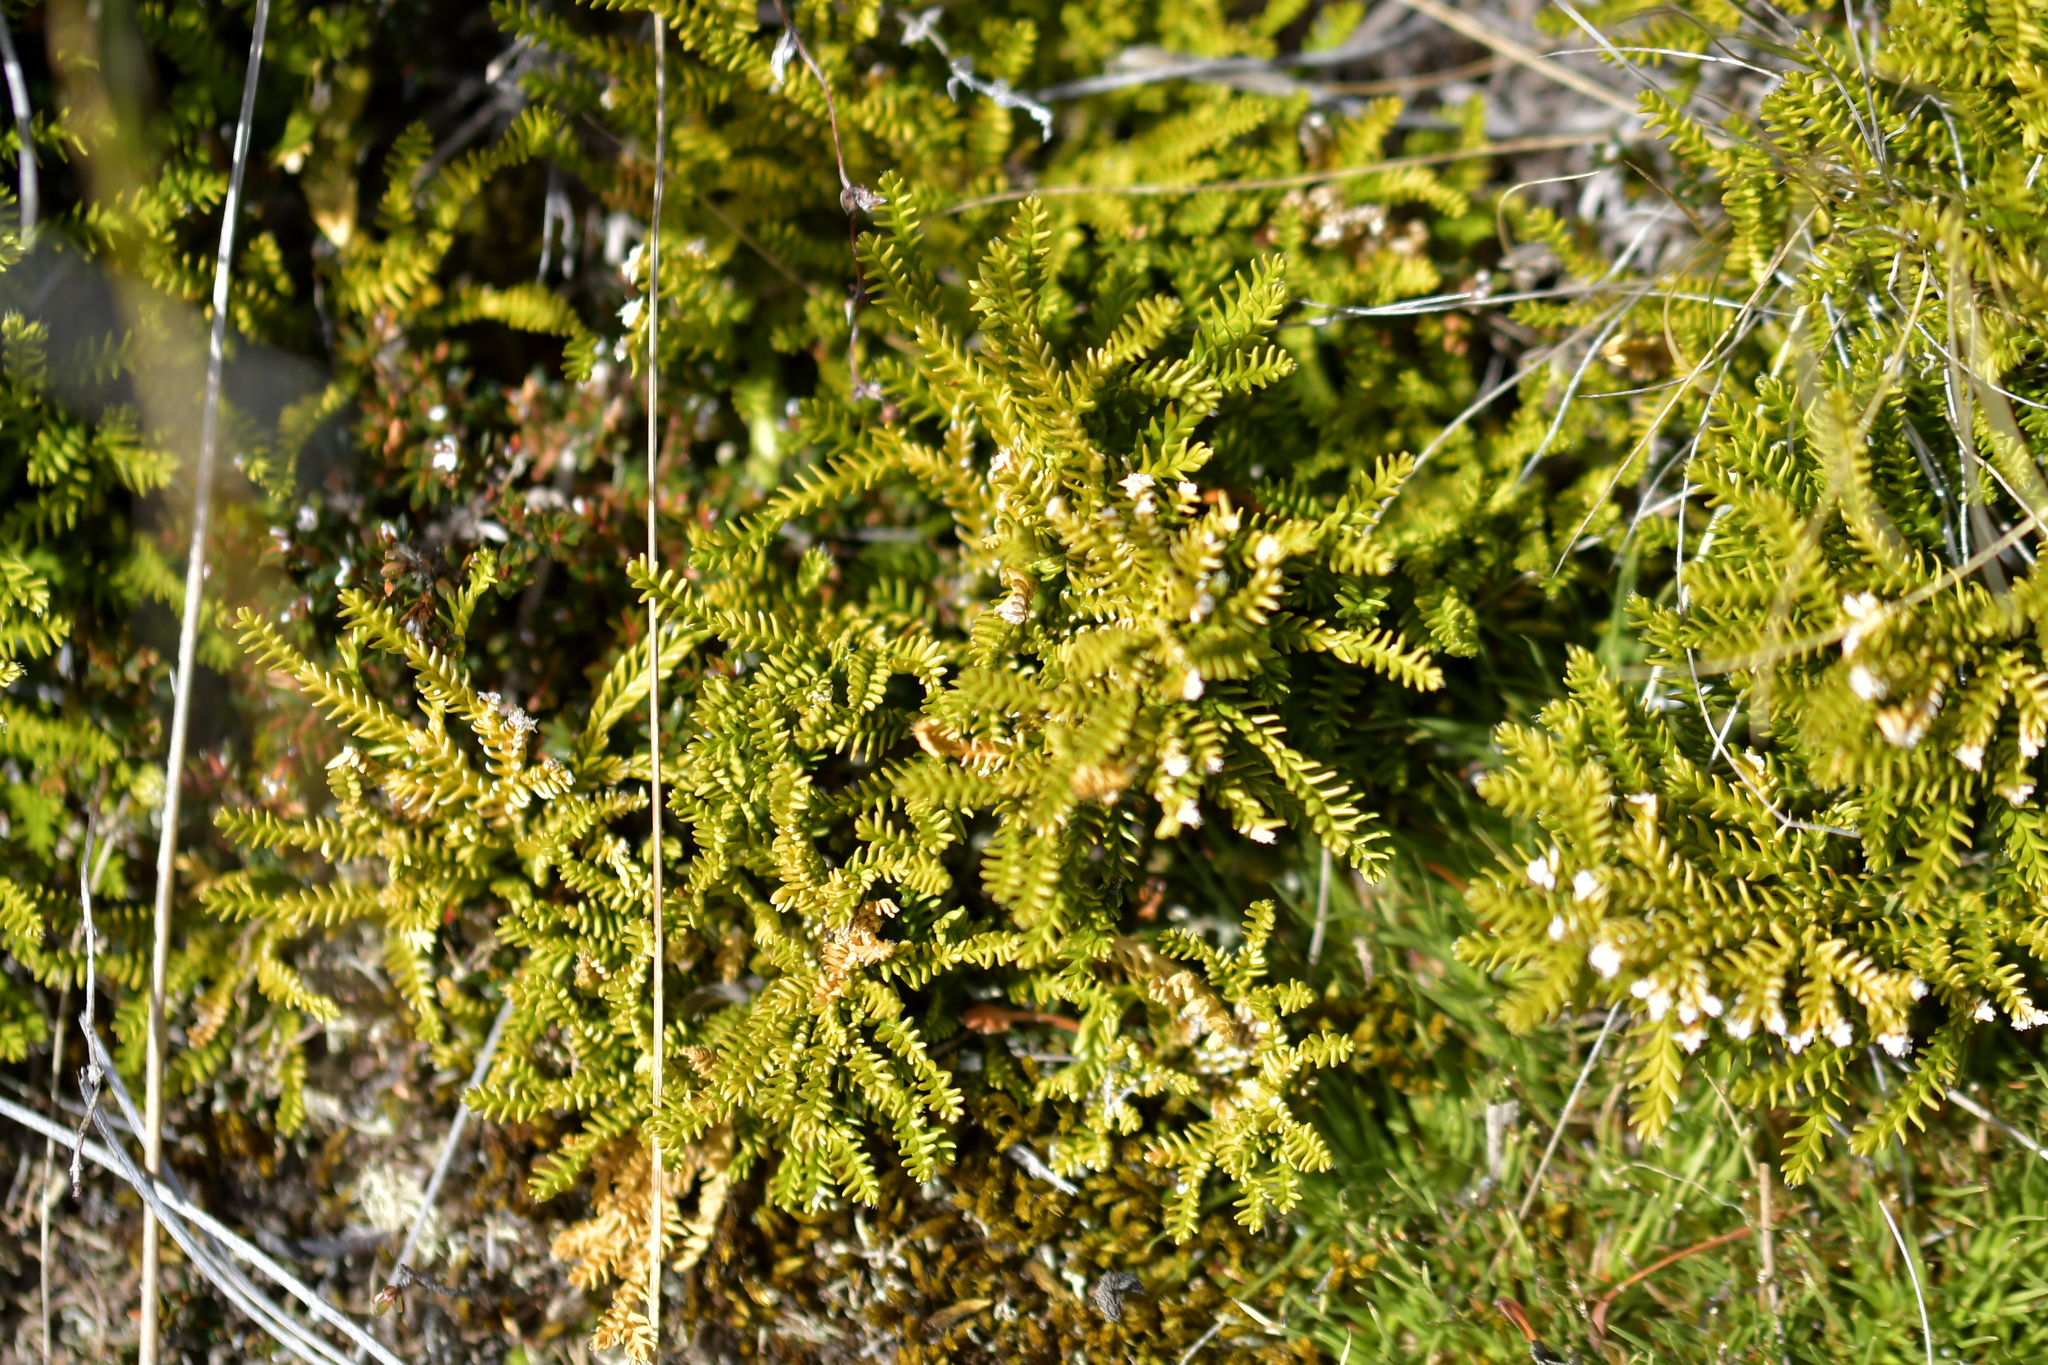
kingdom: Plantae
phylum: Tracheophyta
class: Lycopodiopsida
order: Lycopodiales
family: Lycopodiaceae
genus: Diphasium
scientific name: Diphasium scariosum
